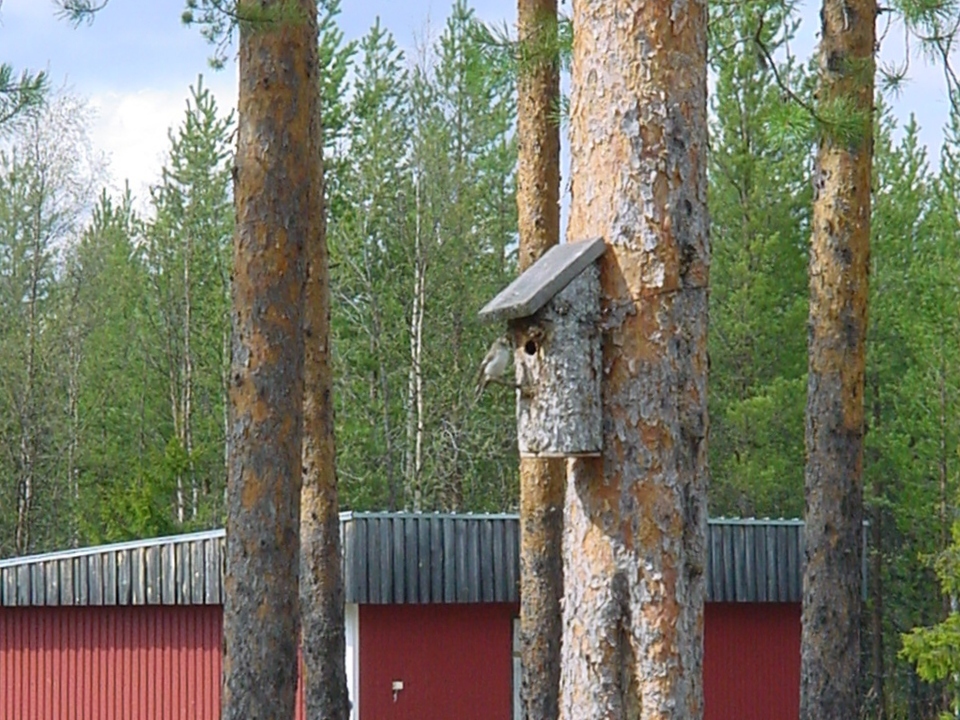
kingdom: Animalia
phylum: Chordata
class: Aves
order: Passeriformes
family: Muscicapidae
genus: Ficedula
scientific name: Ficedula hypoleuca
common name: European pied flycatcher
